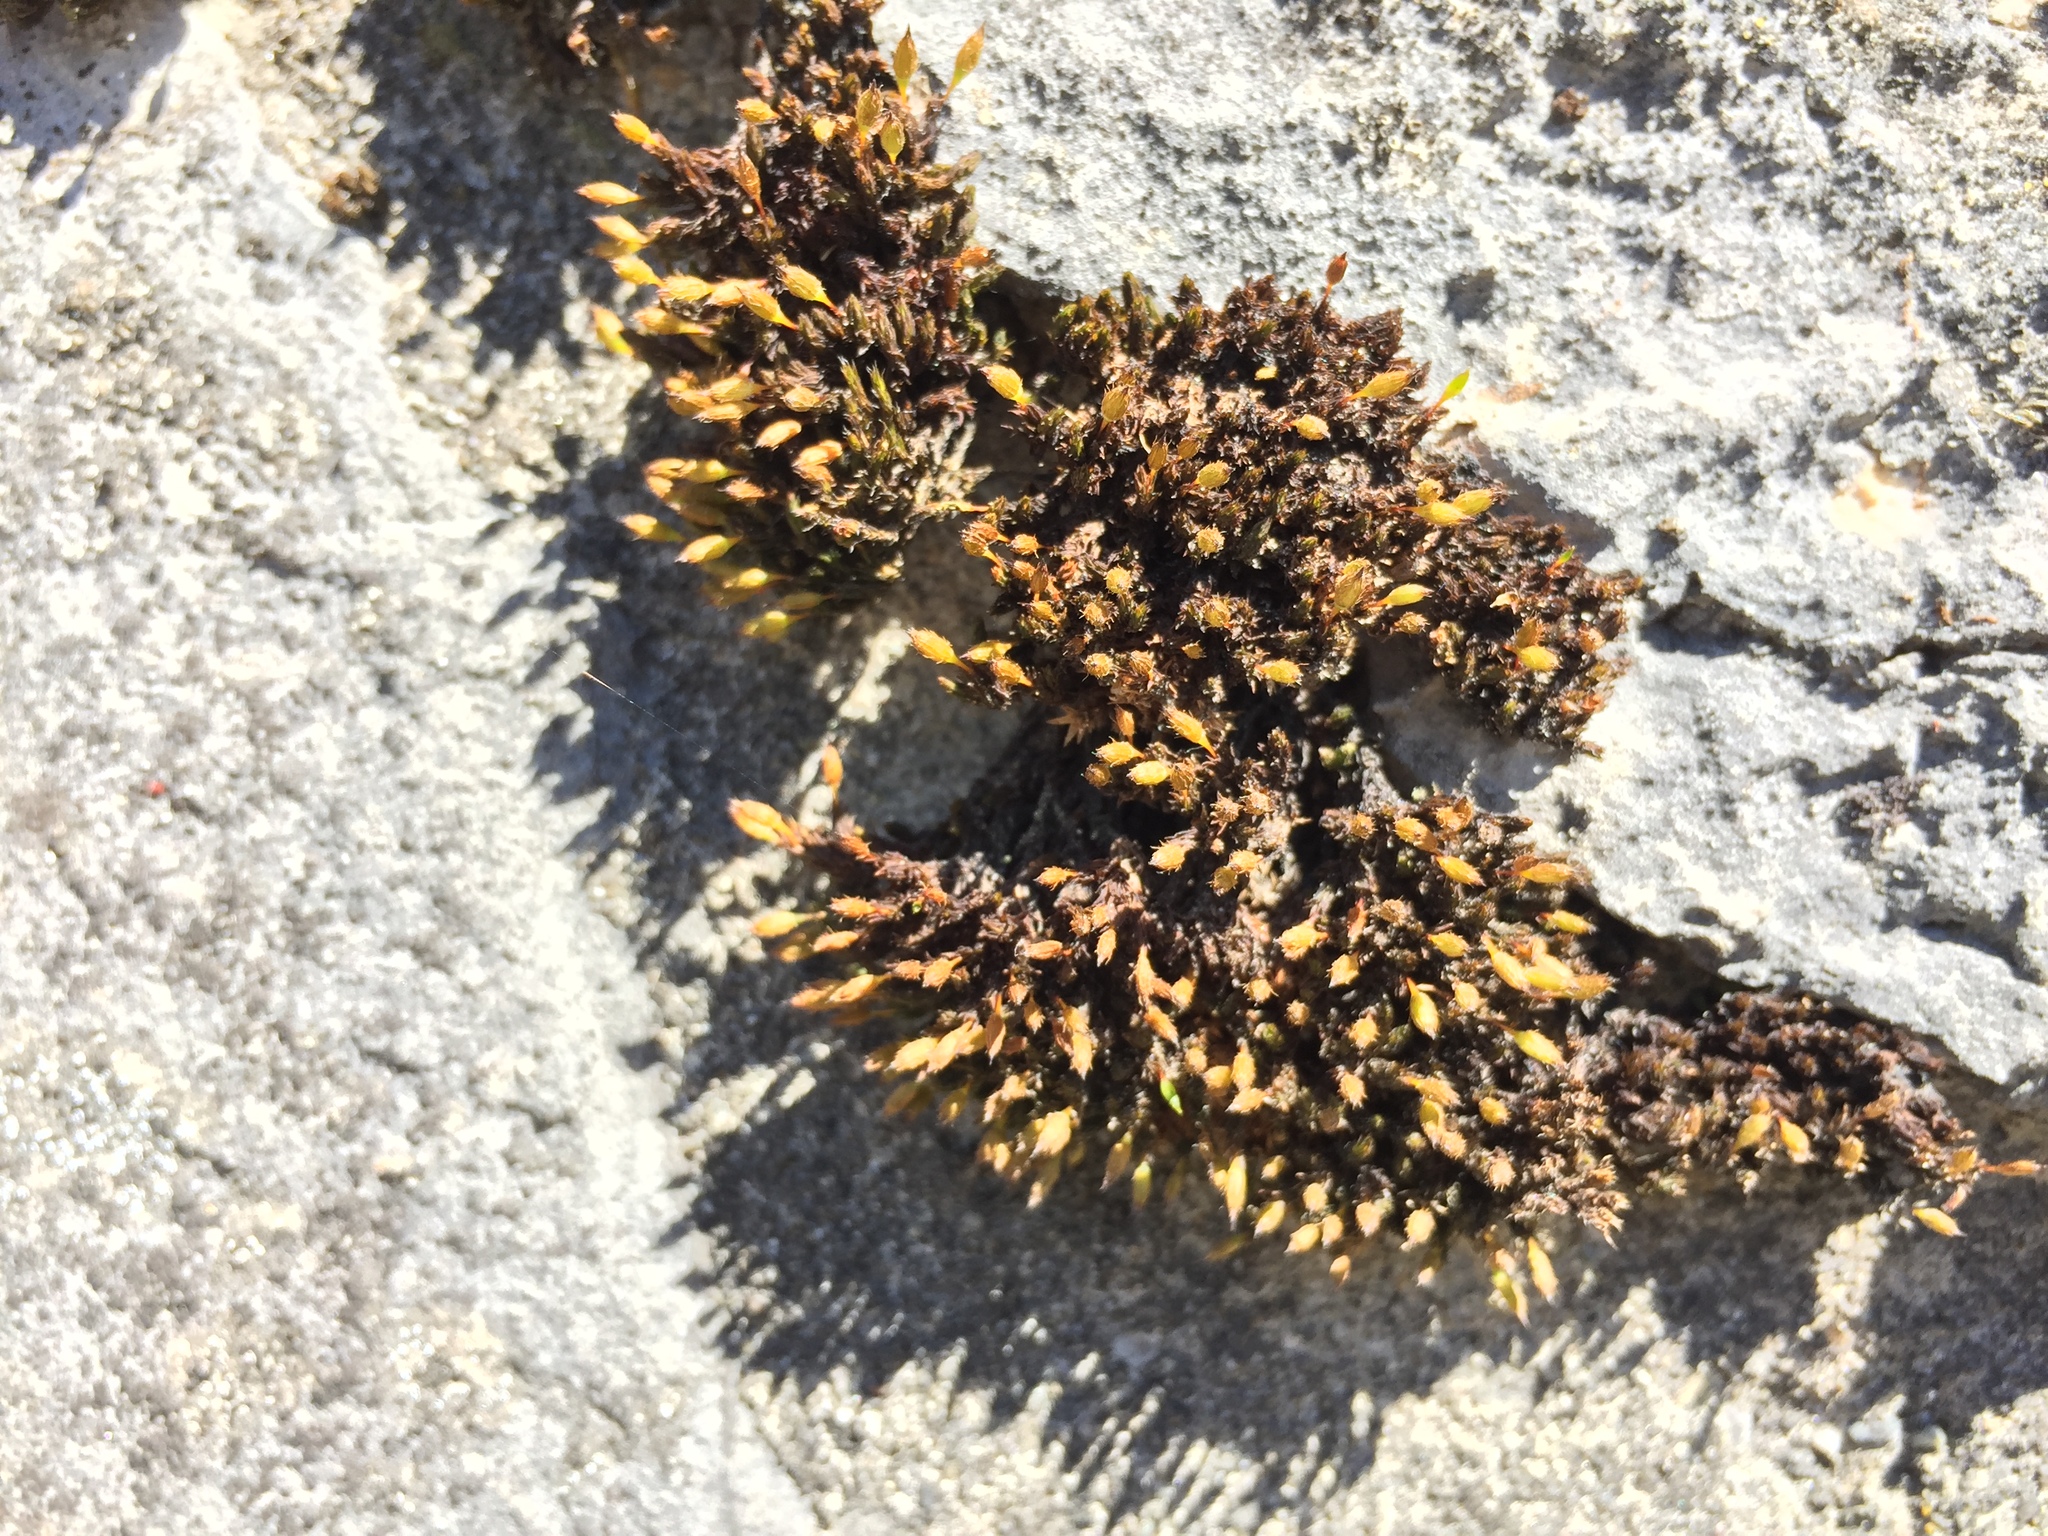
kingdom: Plantae
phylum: Bryophyta
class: Bryopsida
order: Orthotrichales
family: Orthotrichaceae
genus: Orthotrichum
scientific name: Orthotrichum anomalum
